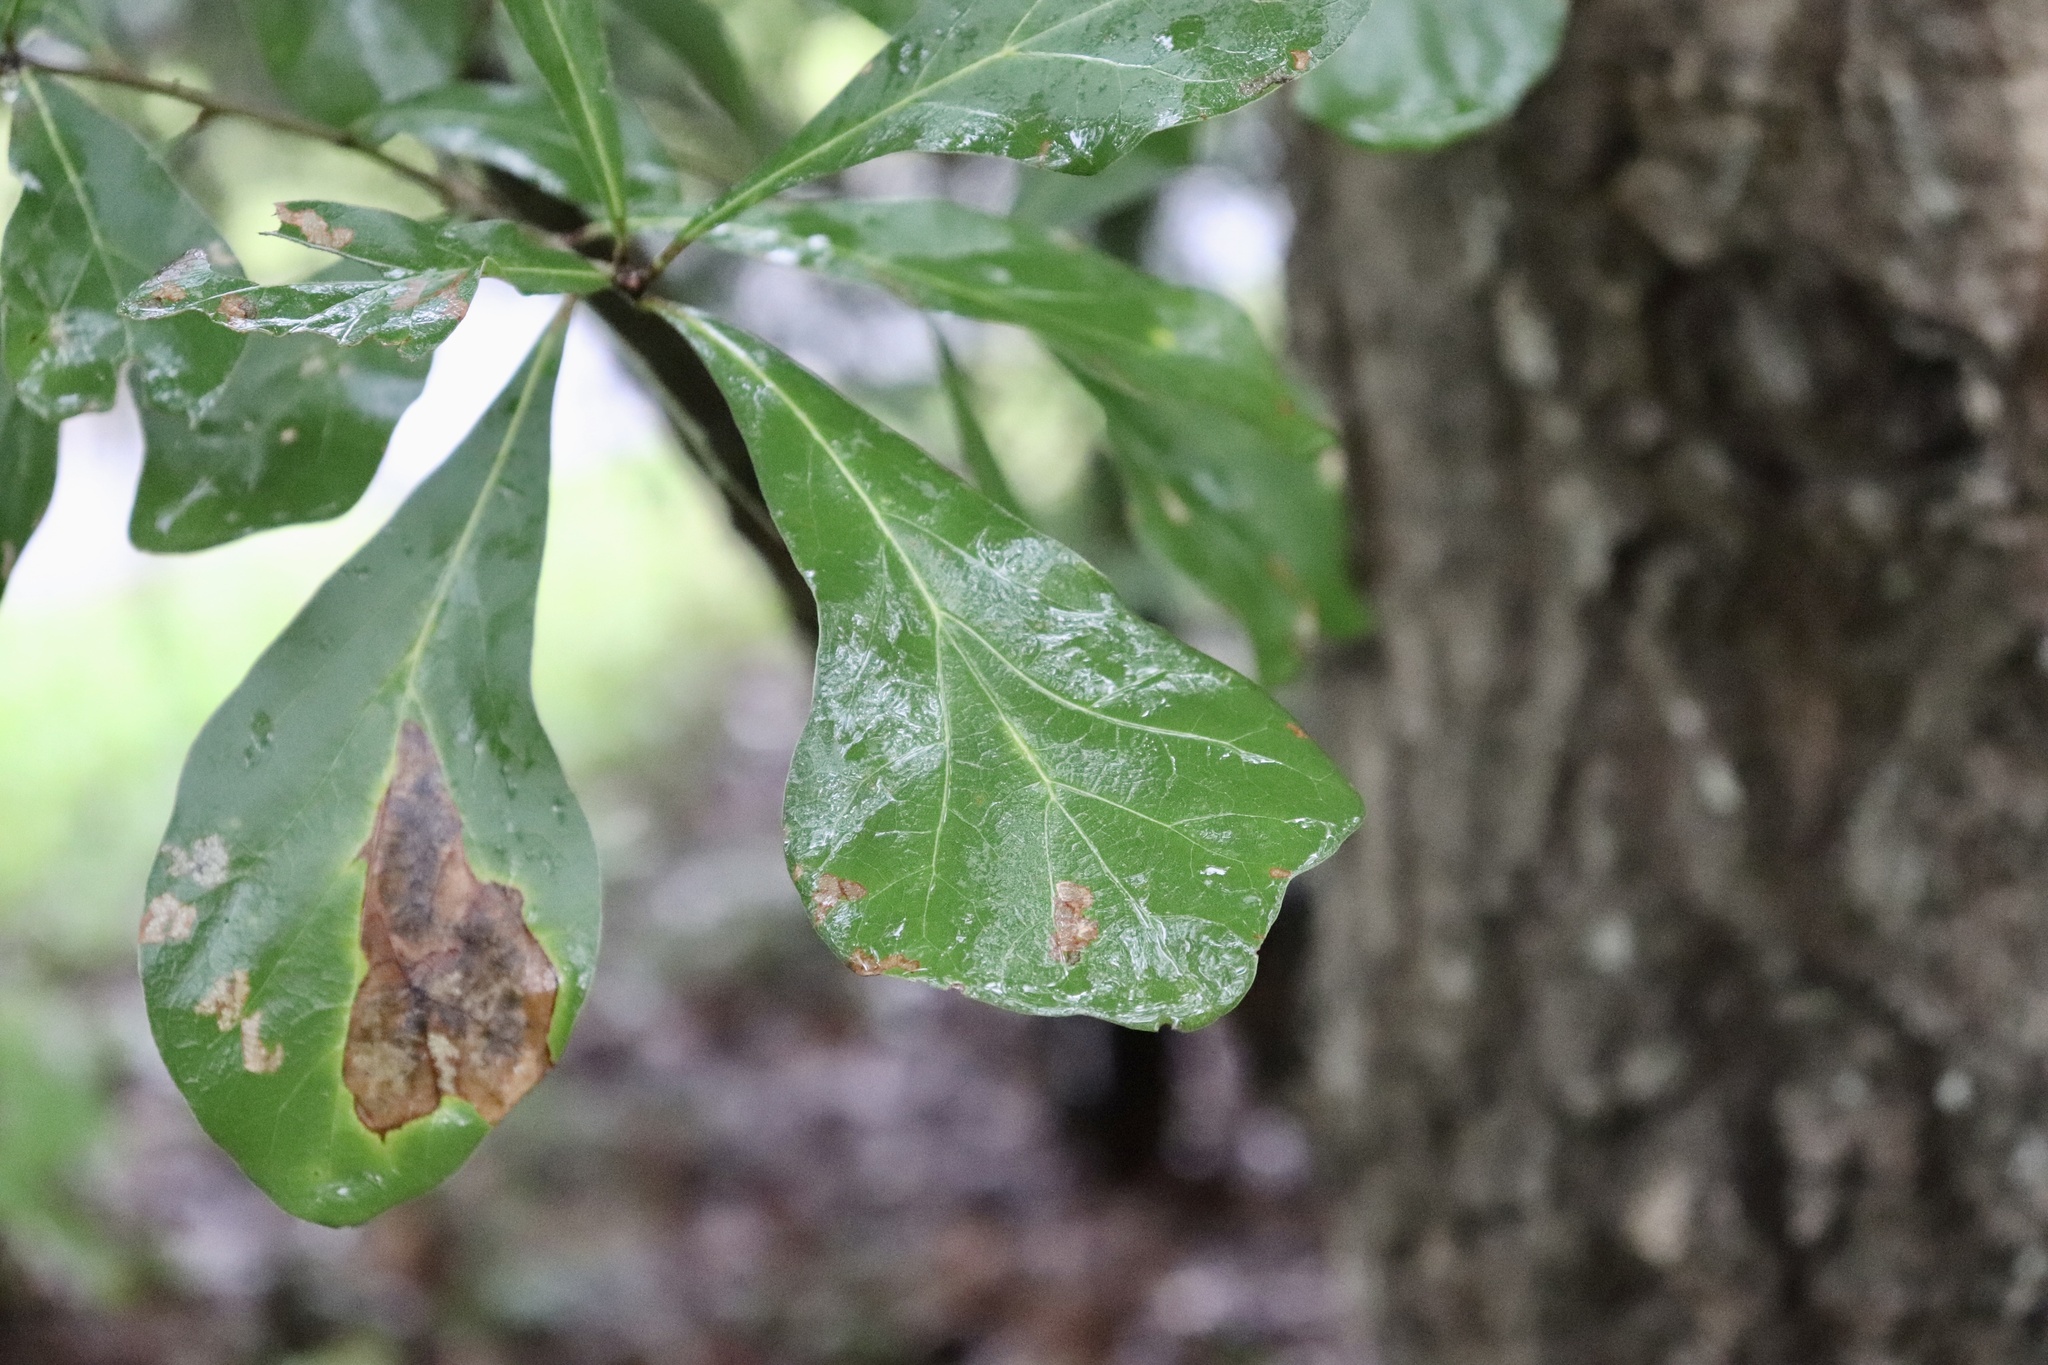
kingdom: Plantae
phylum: Tracheophyta
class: Magnoliopsida
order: Fagales
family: Fagaceae
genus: Quercus
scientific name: Quercus nigra
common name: Water oak
